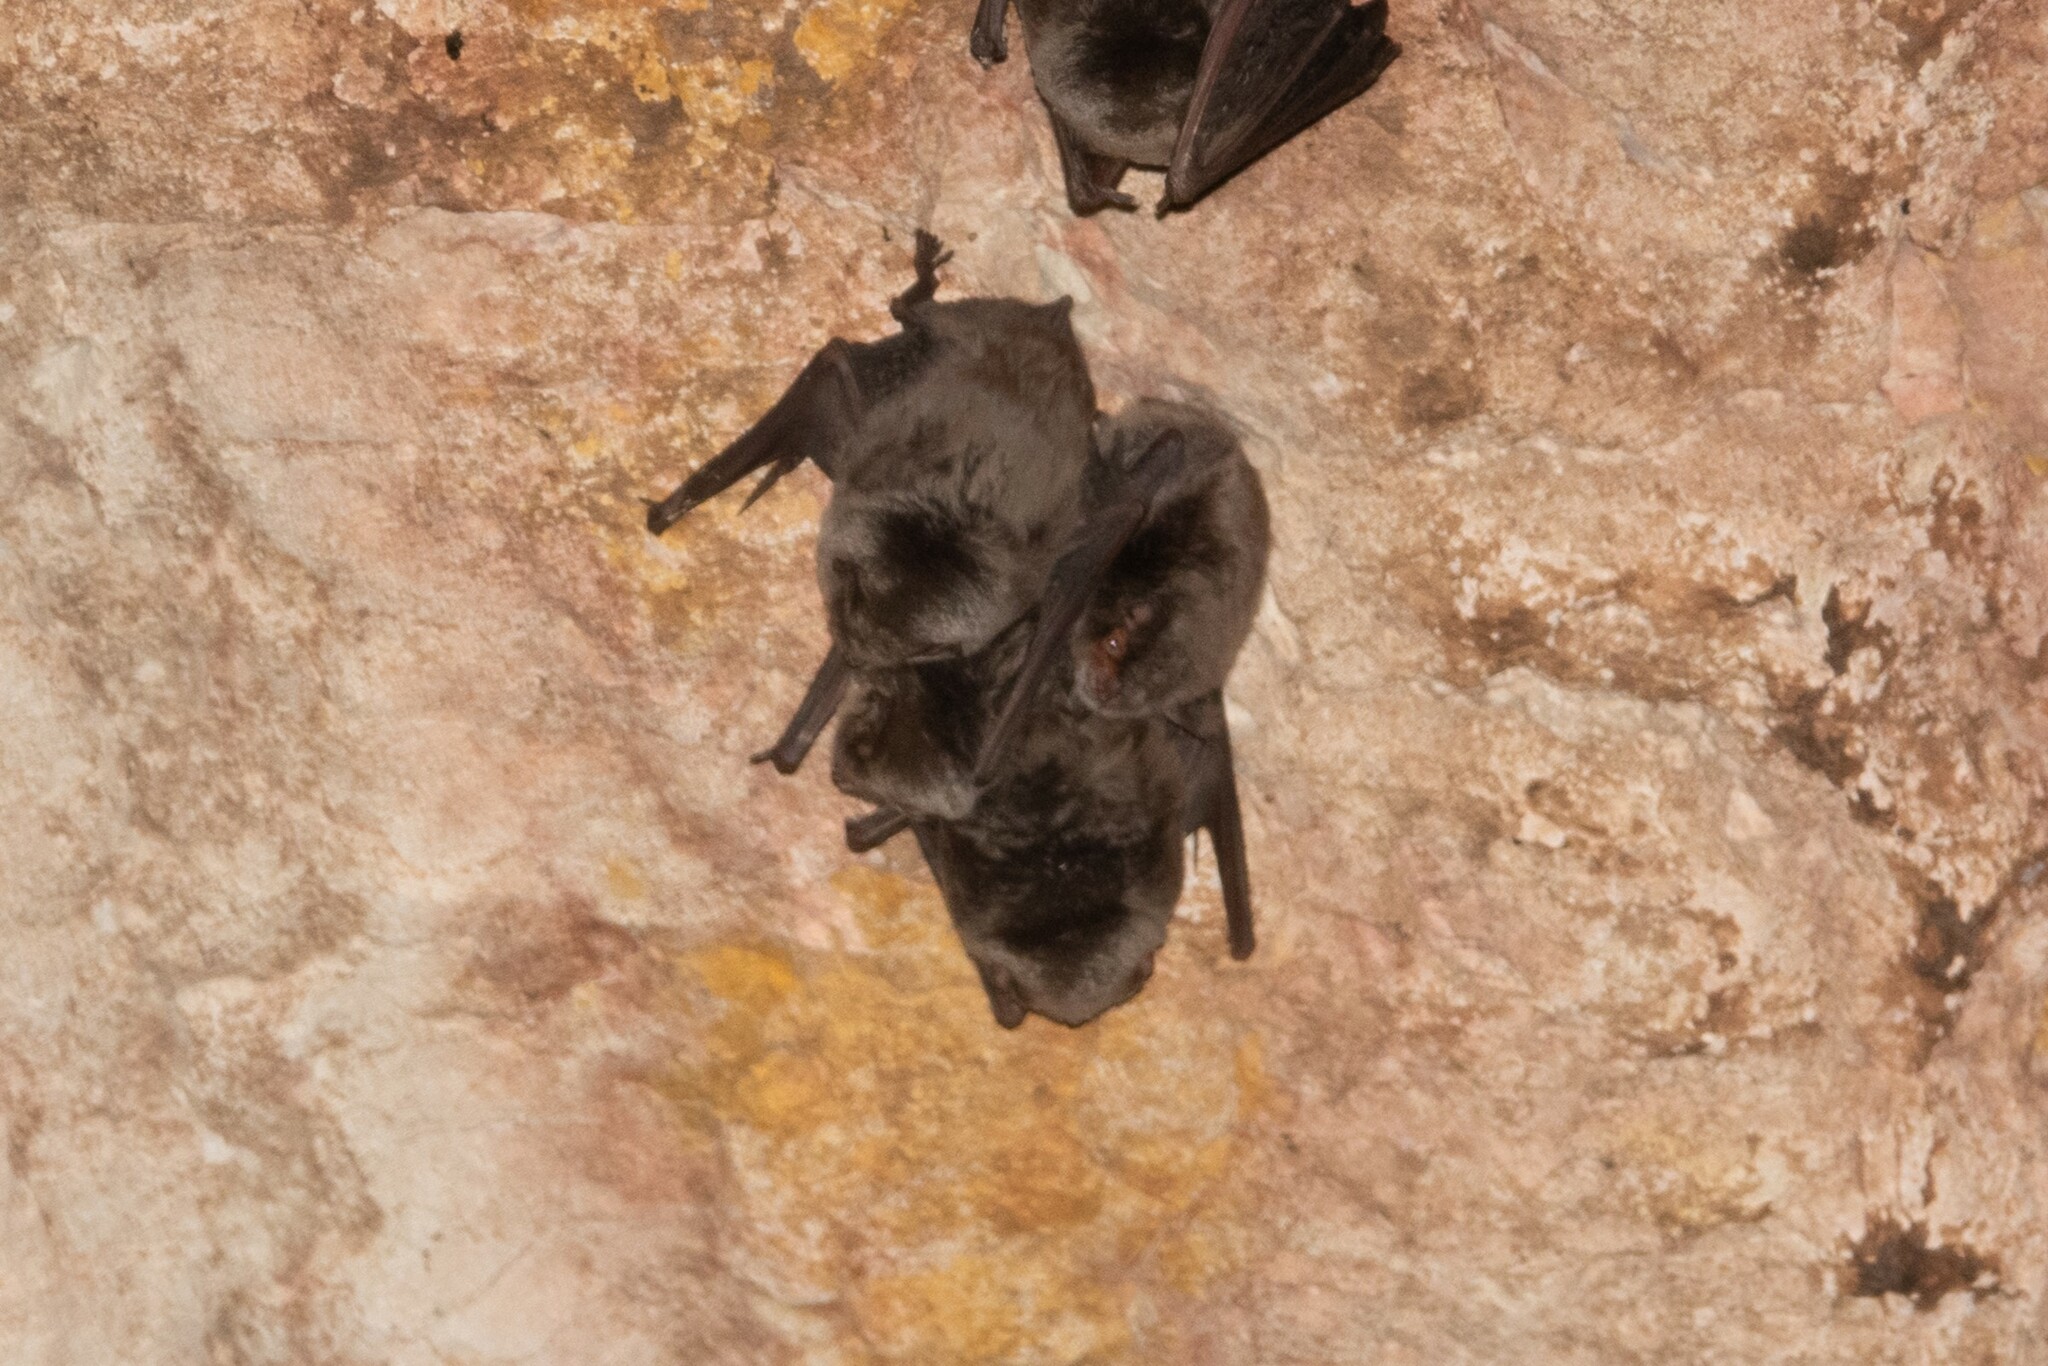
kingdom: Animalia
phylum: Chordata
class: Mammalia
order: Chiroptera
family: Miniopteridae
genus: Miniopterus
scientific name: Miniopterus schreibersii
